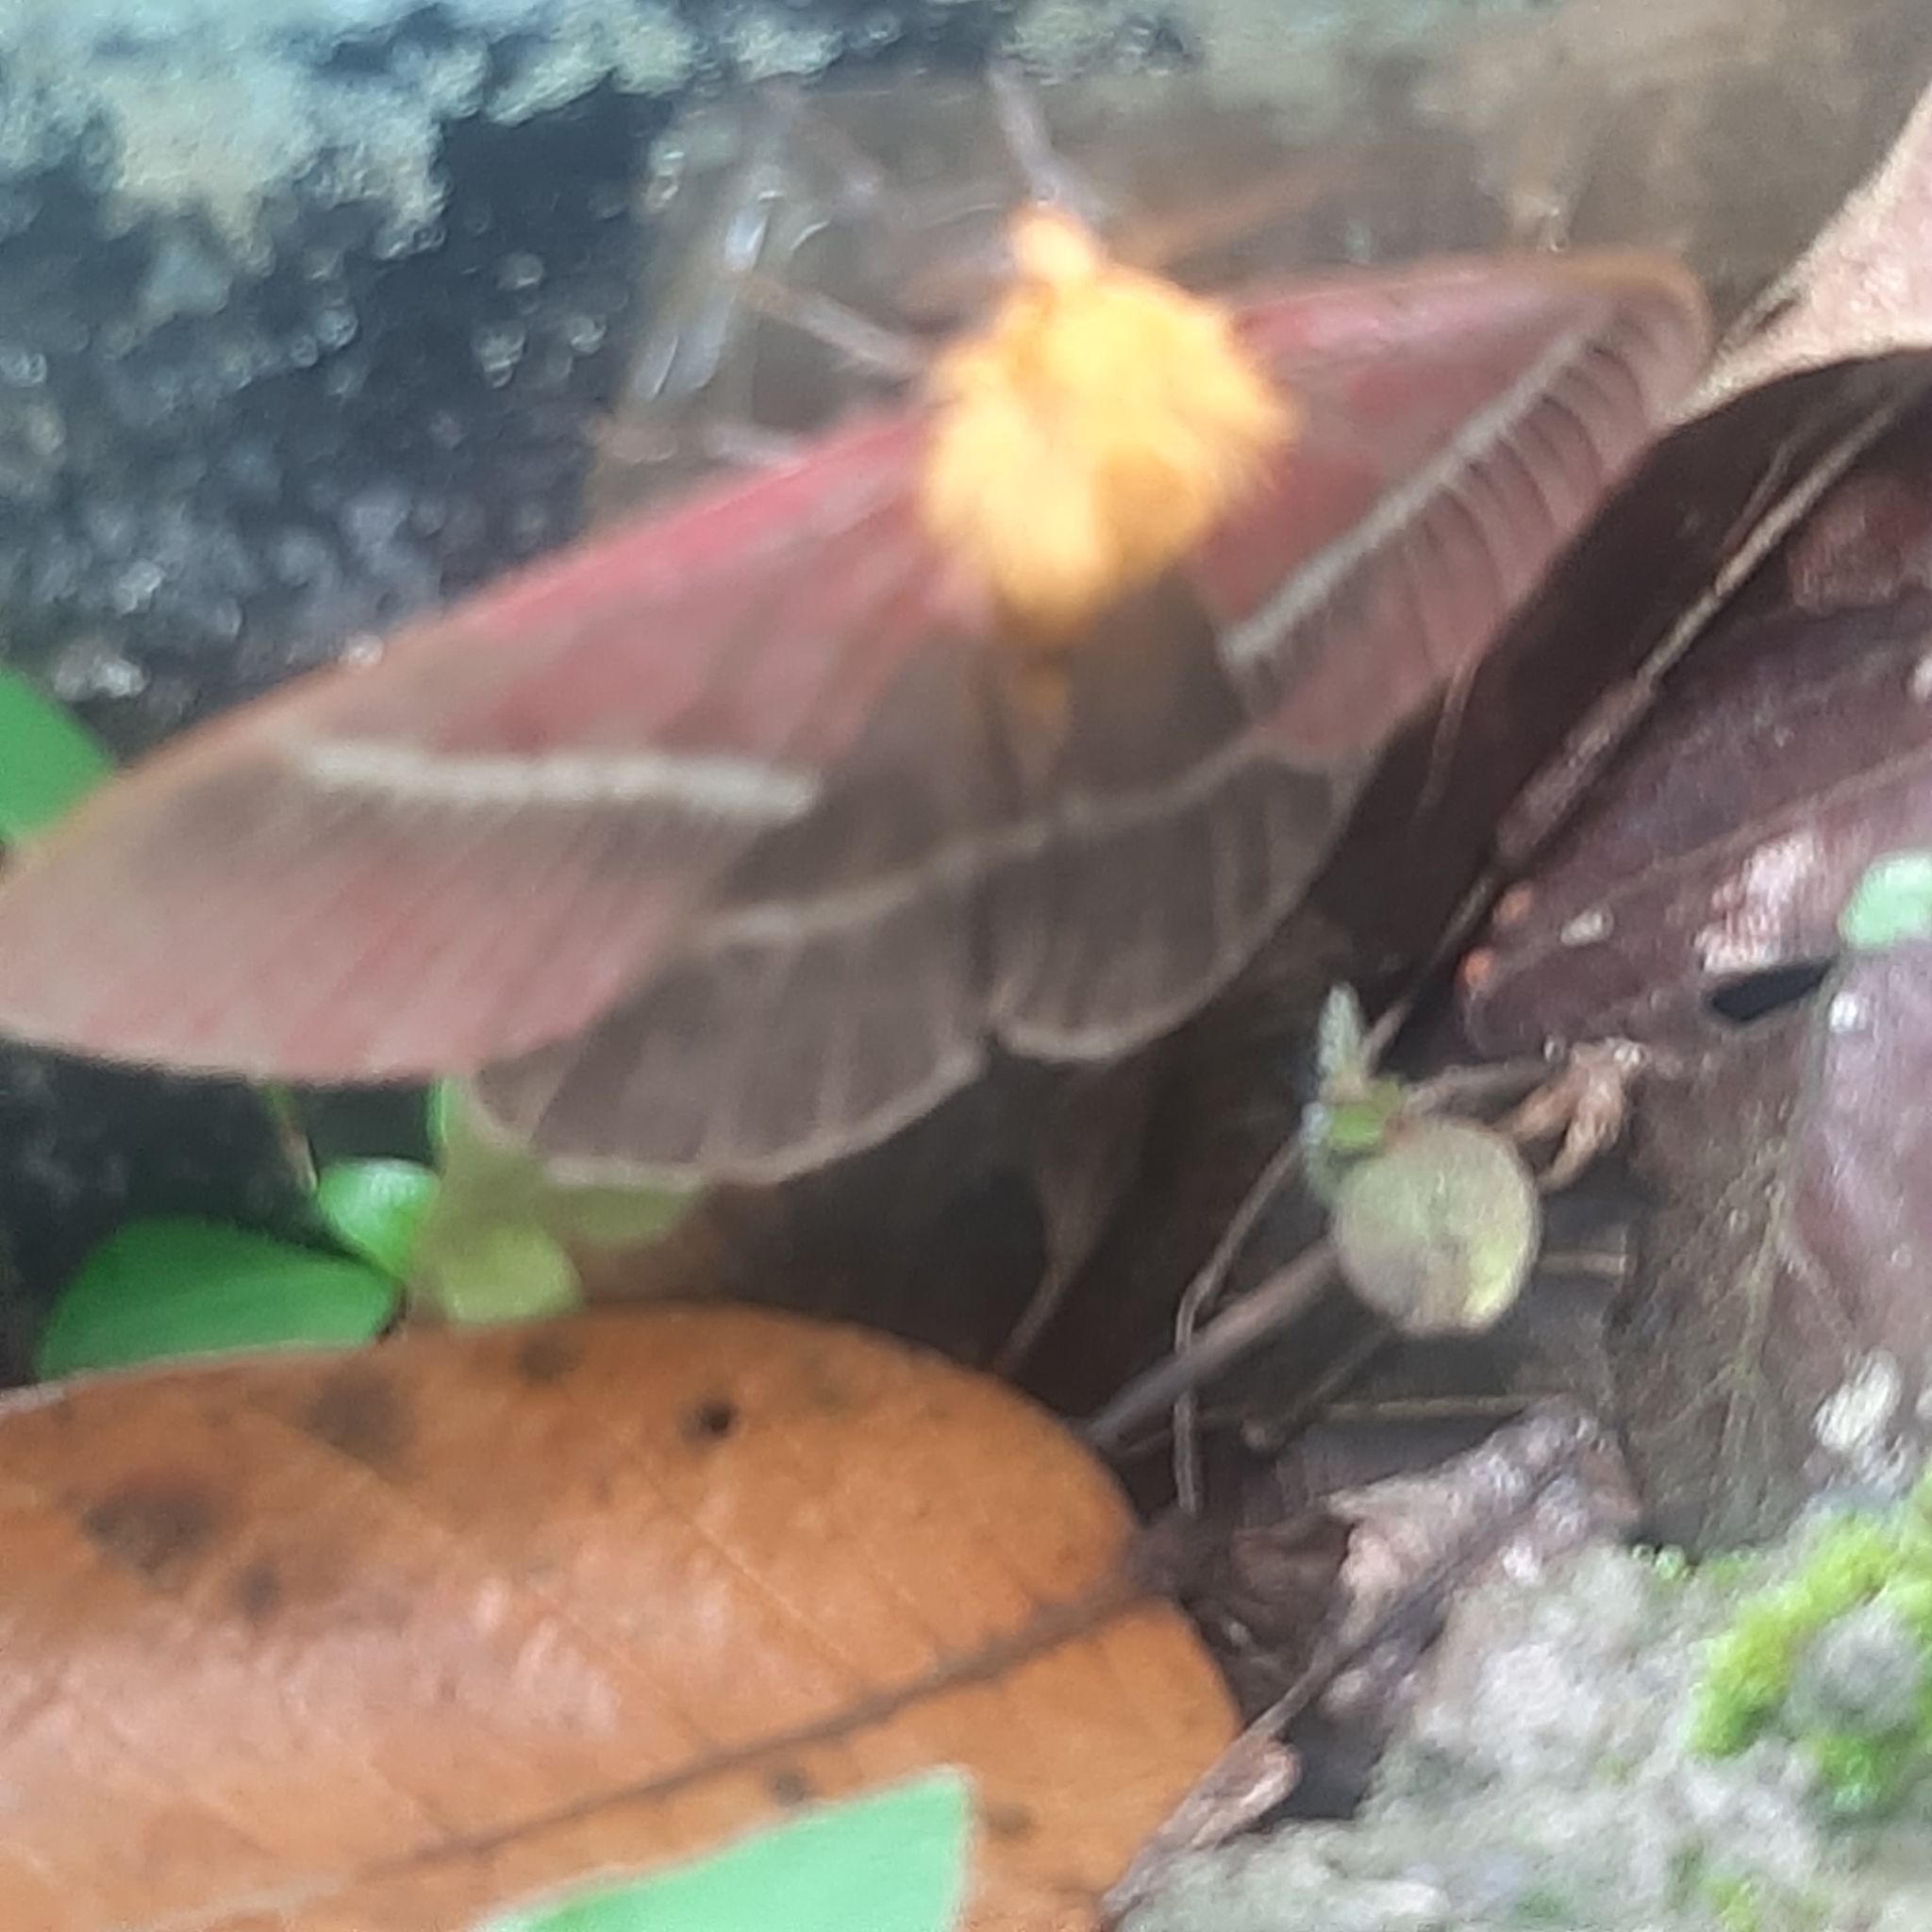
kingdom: Animalia
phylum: Arthropoda
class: Insecta
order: Lepidoptera
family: Saturniidae
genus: Pseudodirphia
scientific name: Pseudodirphia menander
